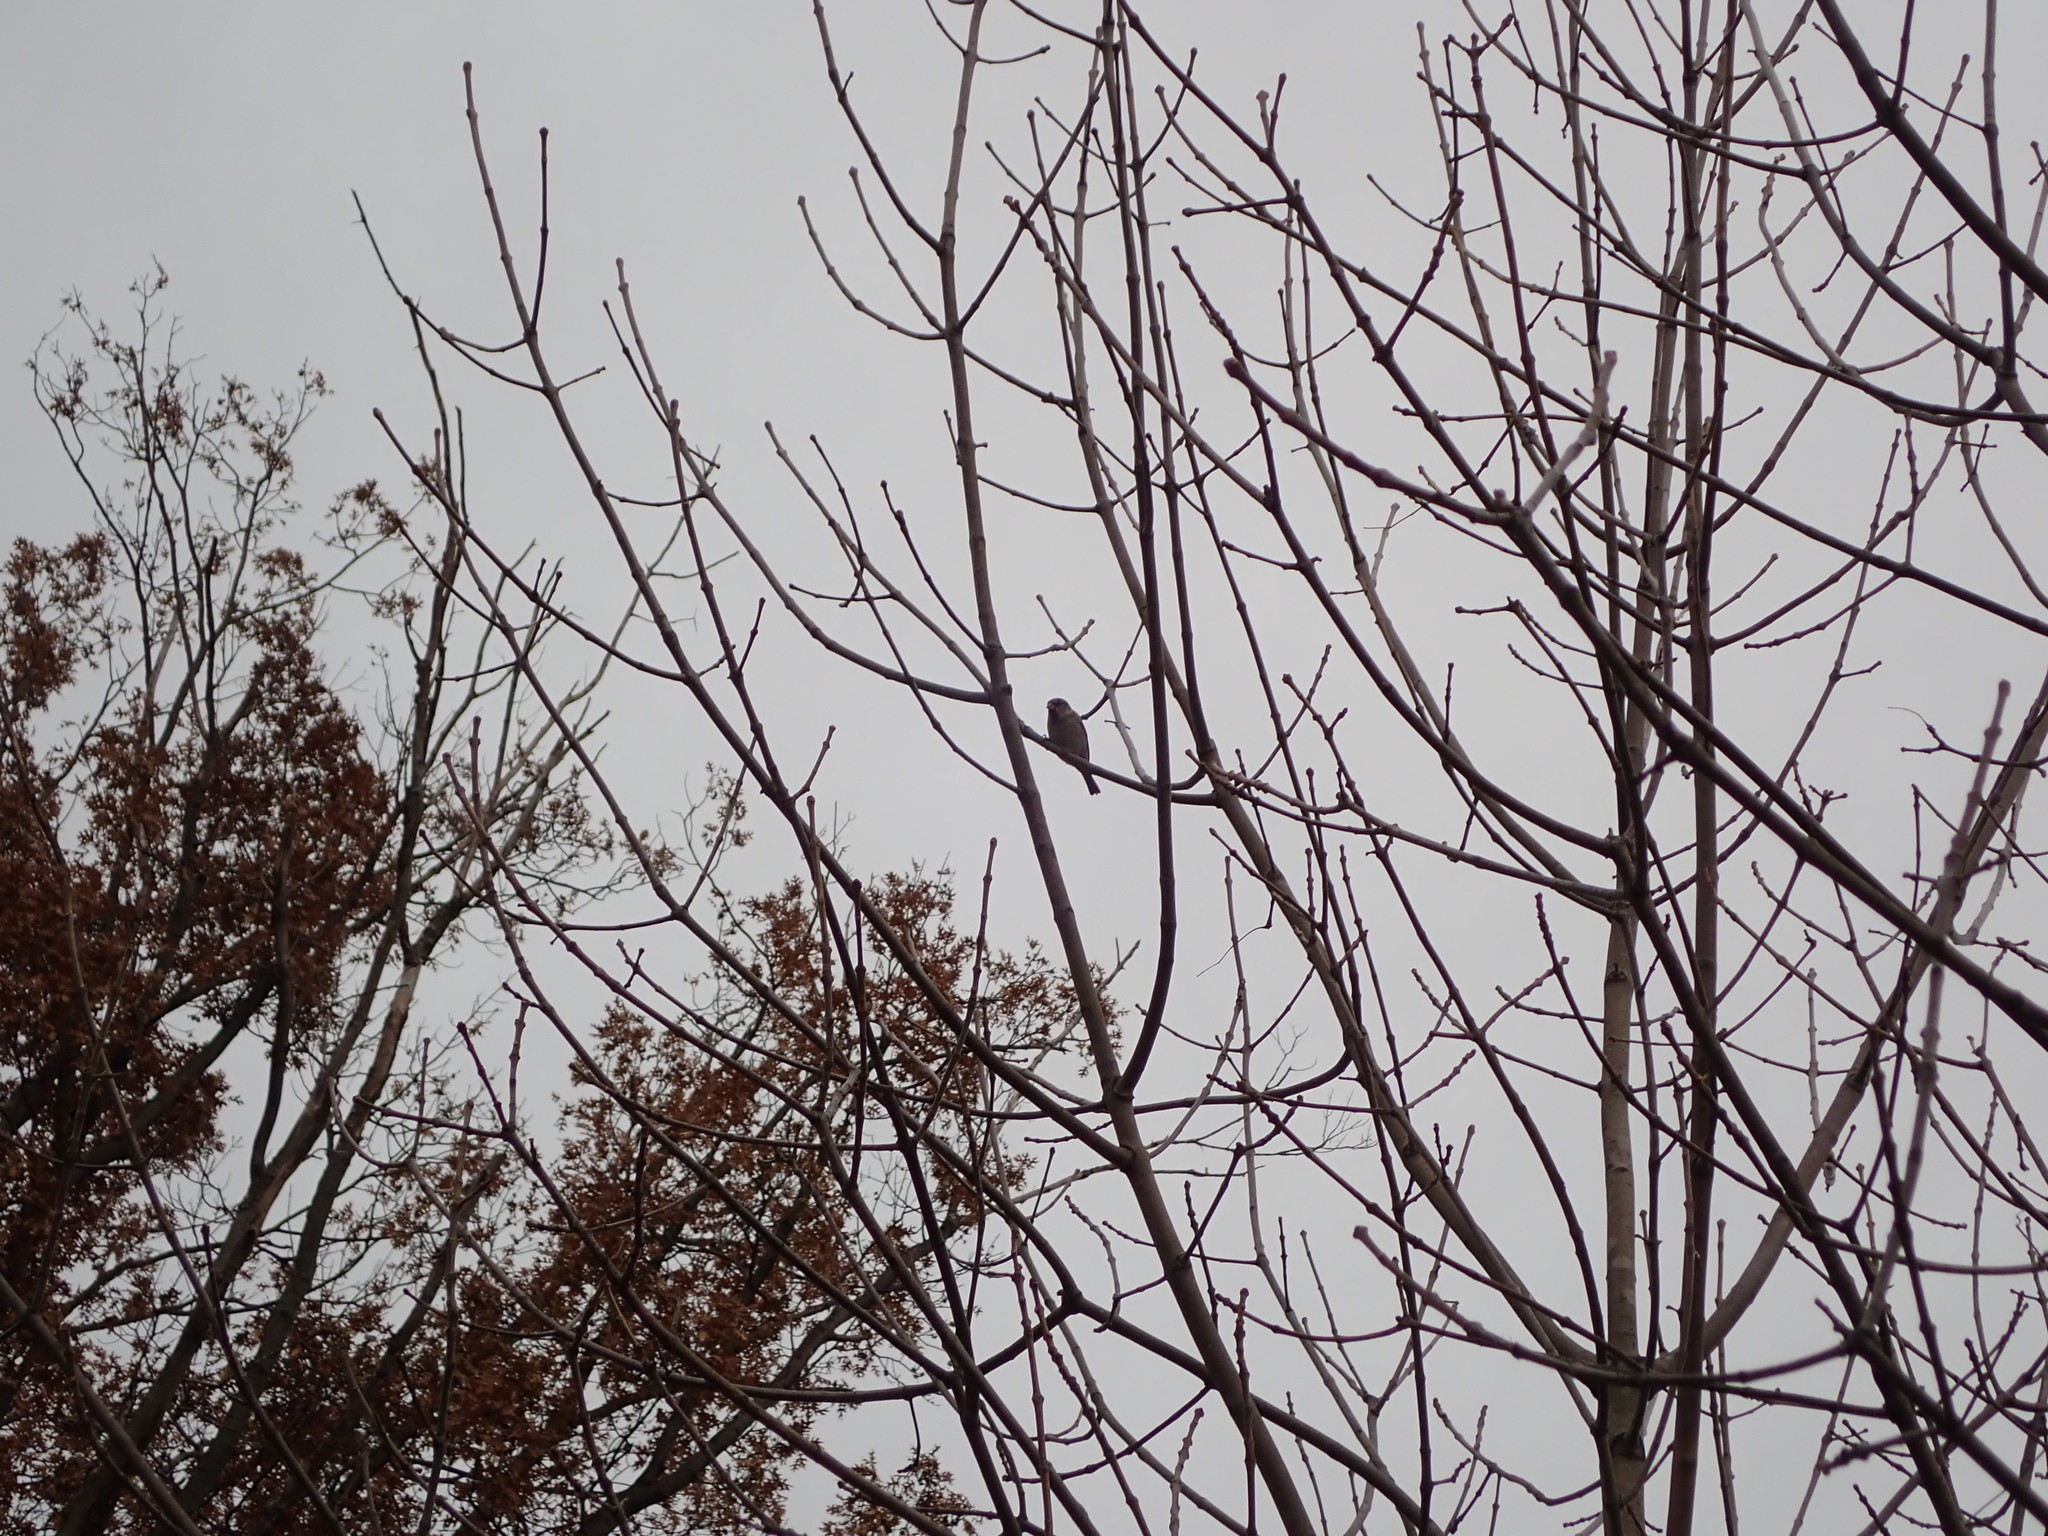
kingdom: Animalia
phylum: Chordata
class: Aves
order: Passeriformes
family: Passeridae
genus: Passer
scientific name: Passer domesticus
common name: House sparrow
